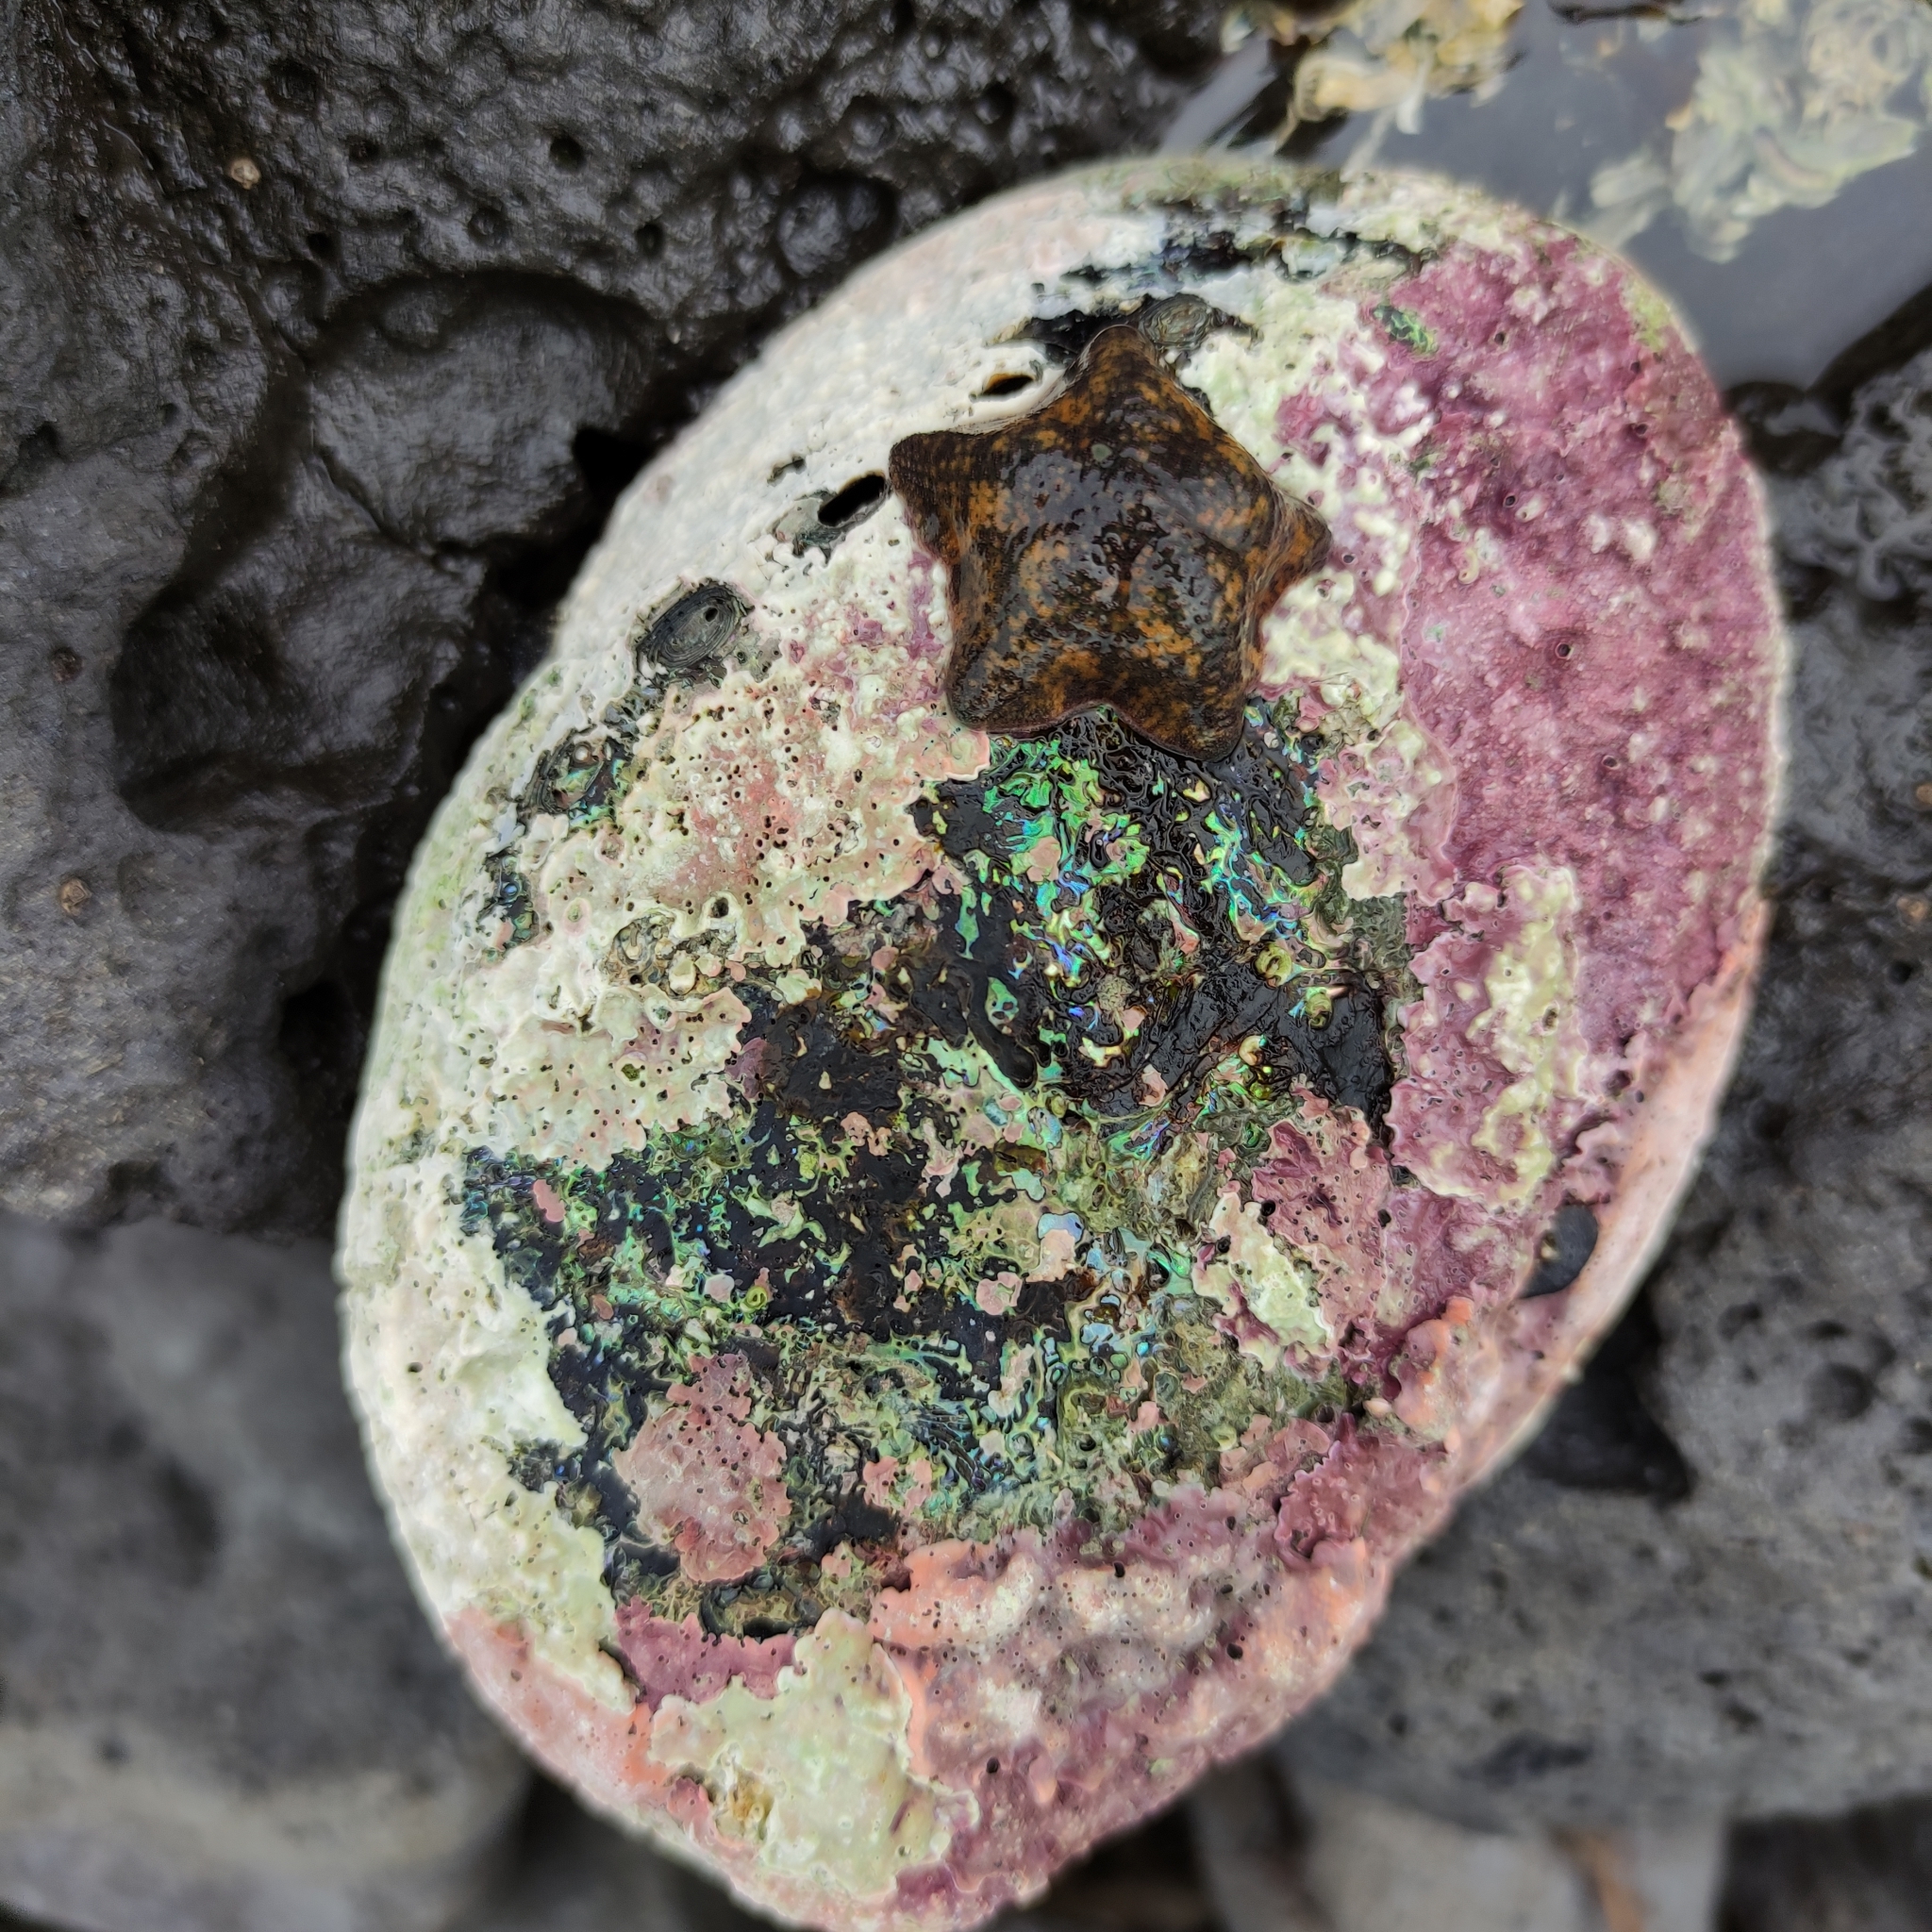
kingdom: Animalia
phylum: Echinodermata
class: Asteroidea
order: Valvatida
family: Asterinidae
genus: Patiriella
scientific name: Patiriella regularis
